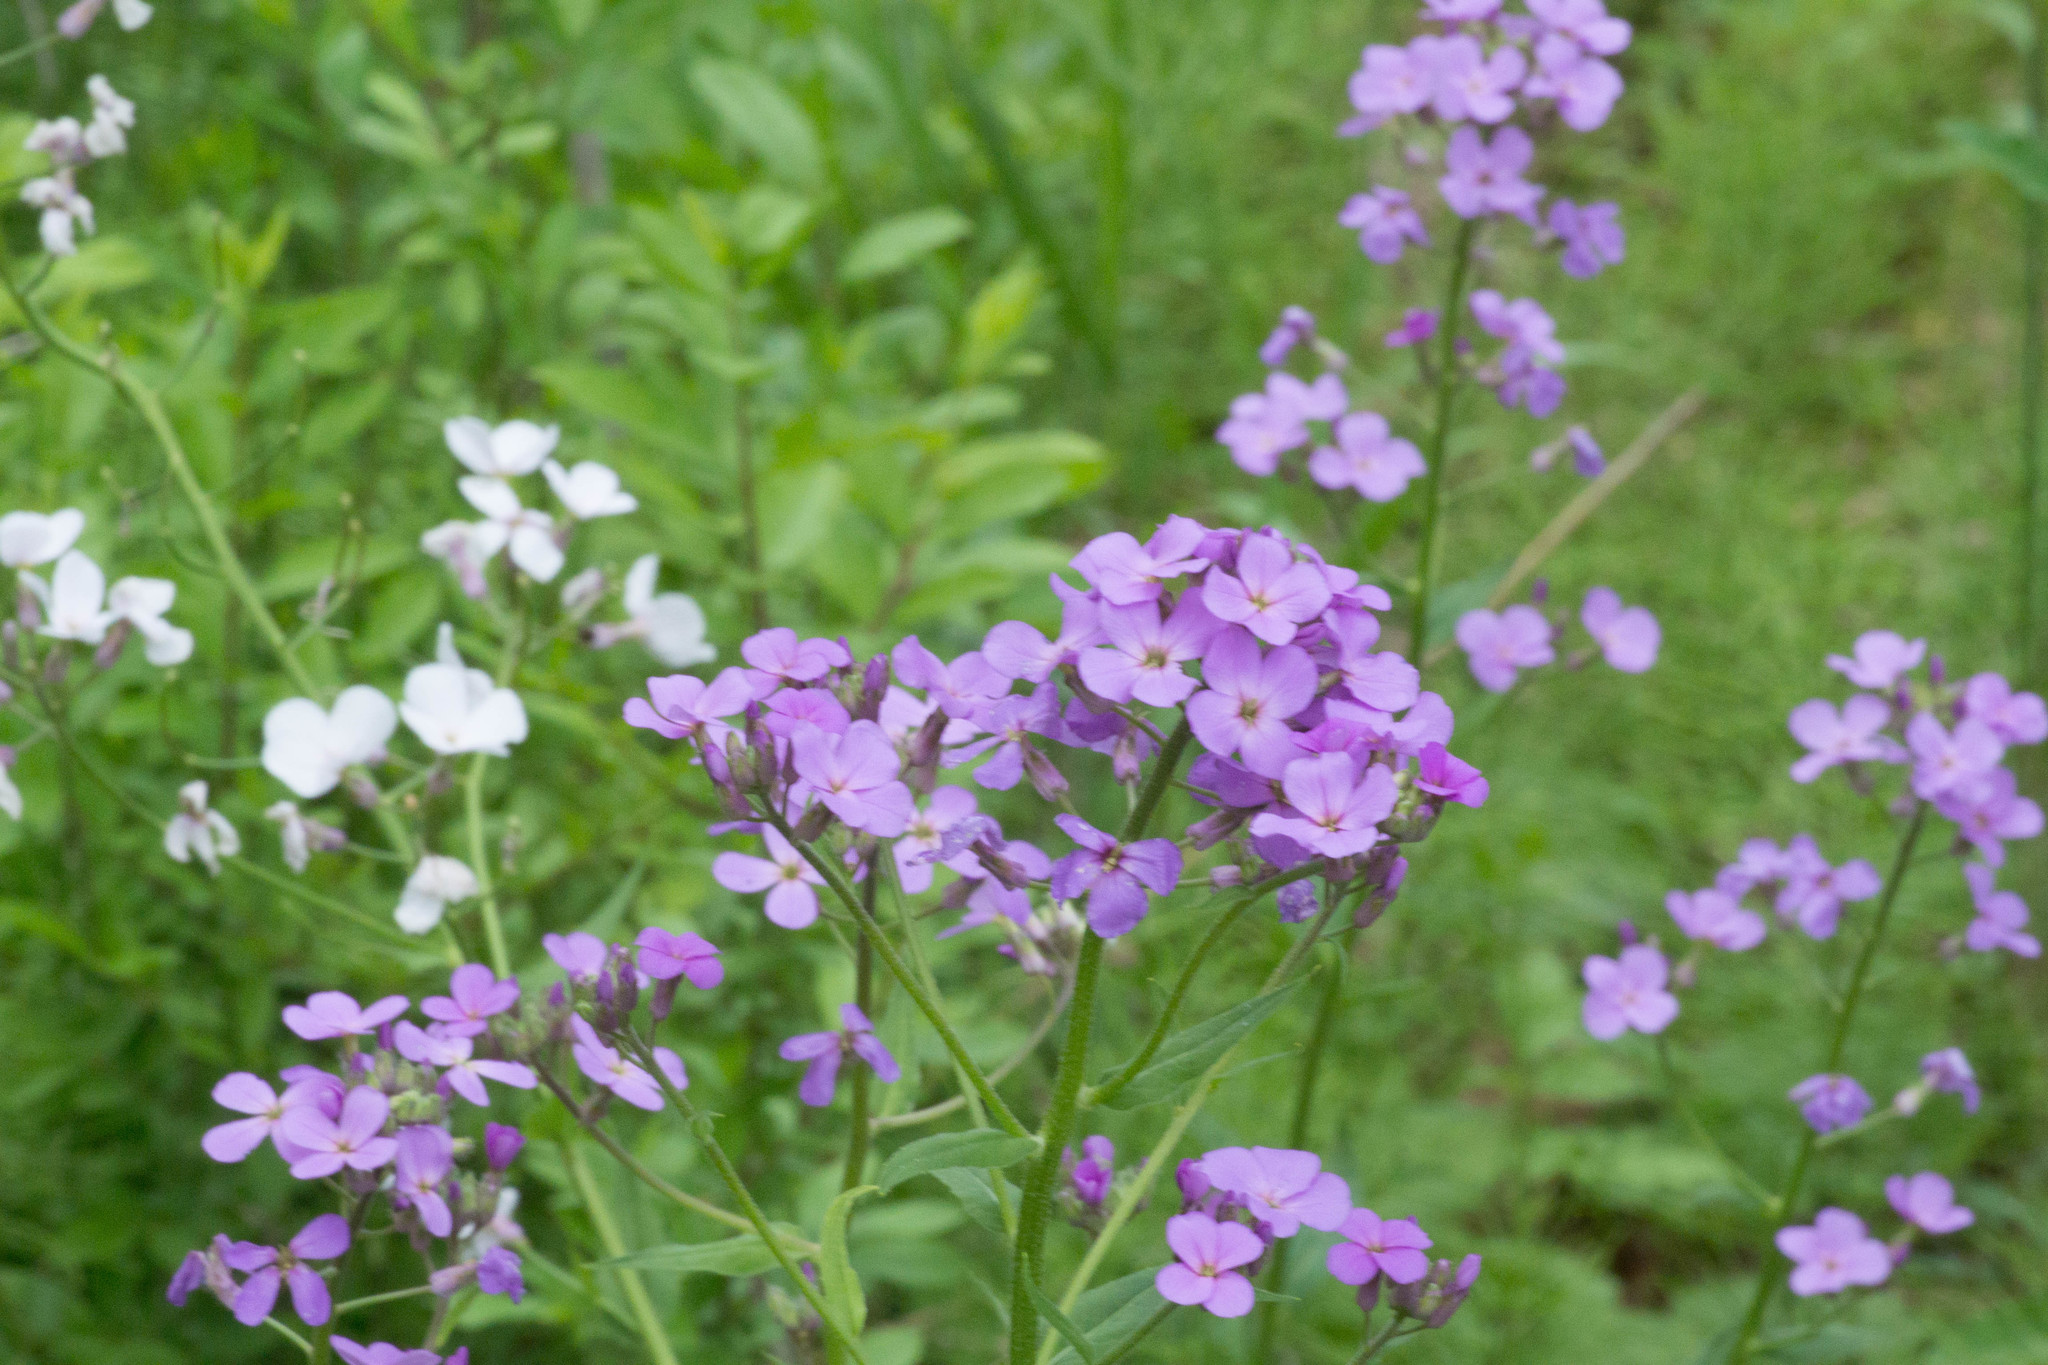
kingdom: Plantae
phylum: Tracheophyta
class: Magnoliopsida
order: Brassicales
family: Brassicaceae
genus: Hesperis
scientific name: Hesperis matronalis
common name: Dame's-violet
